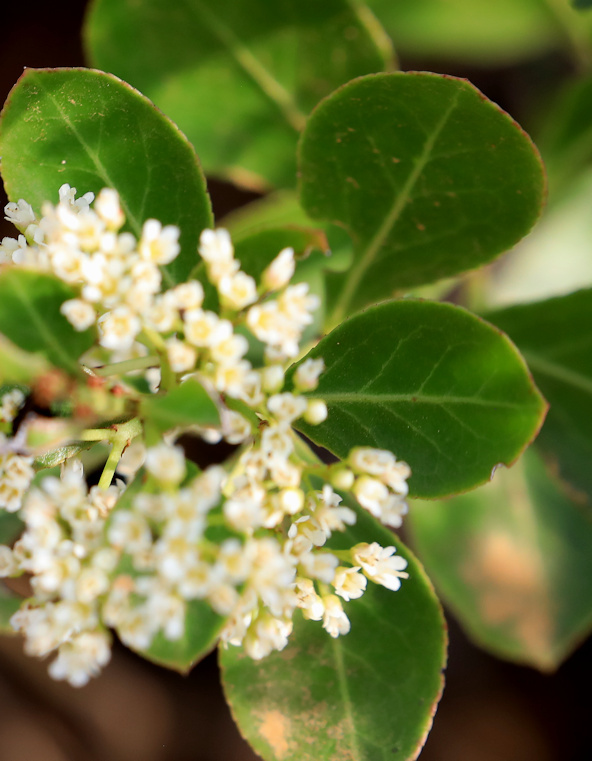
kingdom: Plantae
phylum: Tracheophyta
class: Magnoliopsida
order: Celastrales
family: Celastraceae
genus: Gymnosporia
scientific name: Gymnosporia markwardii
